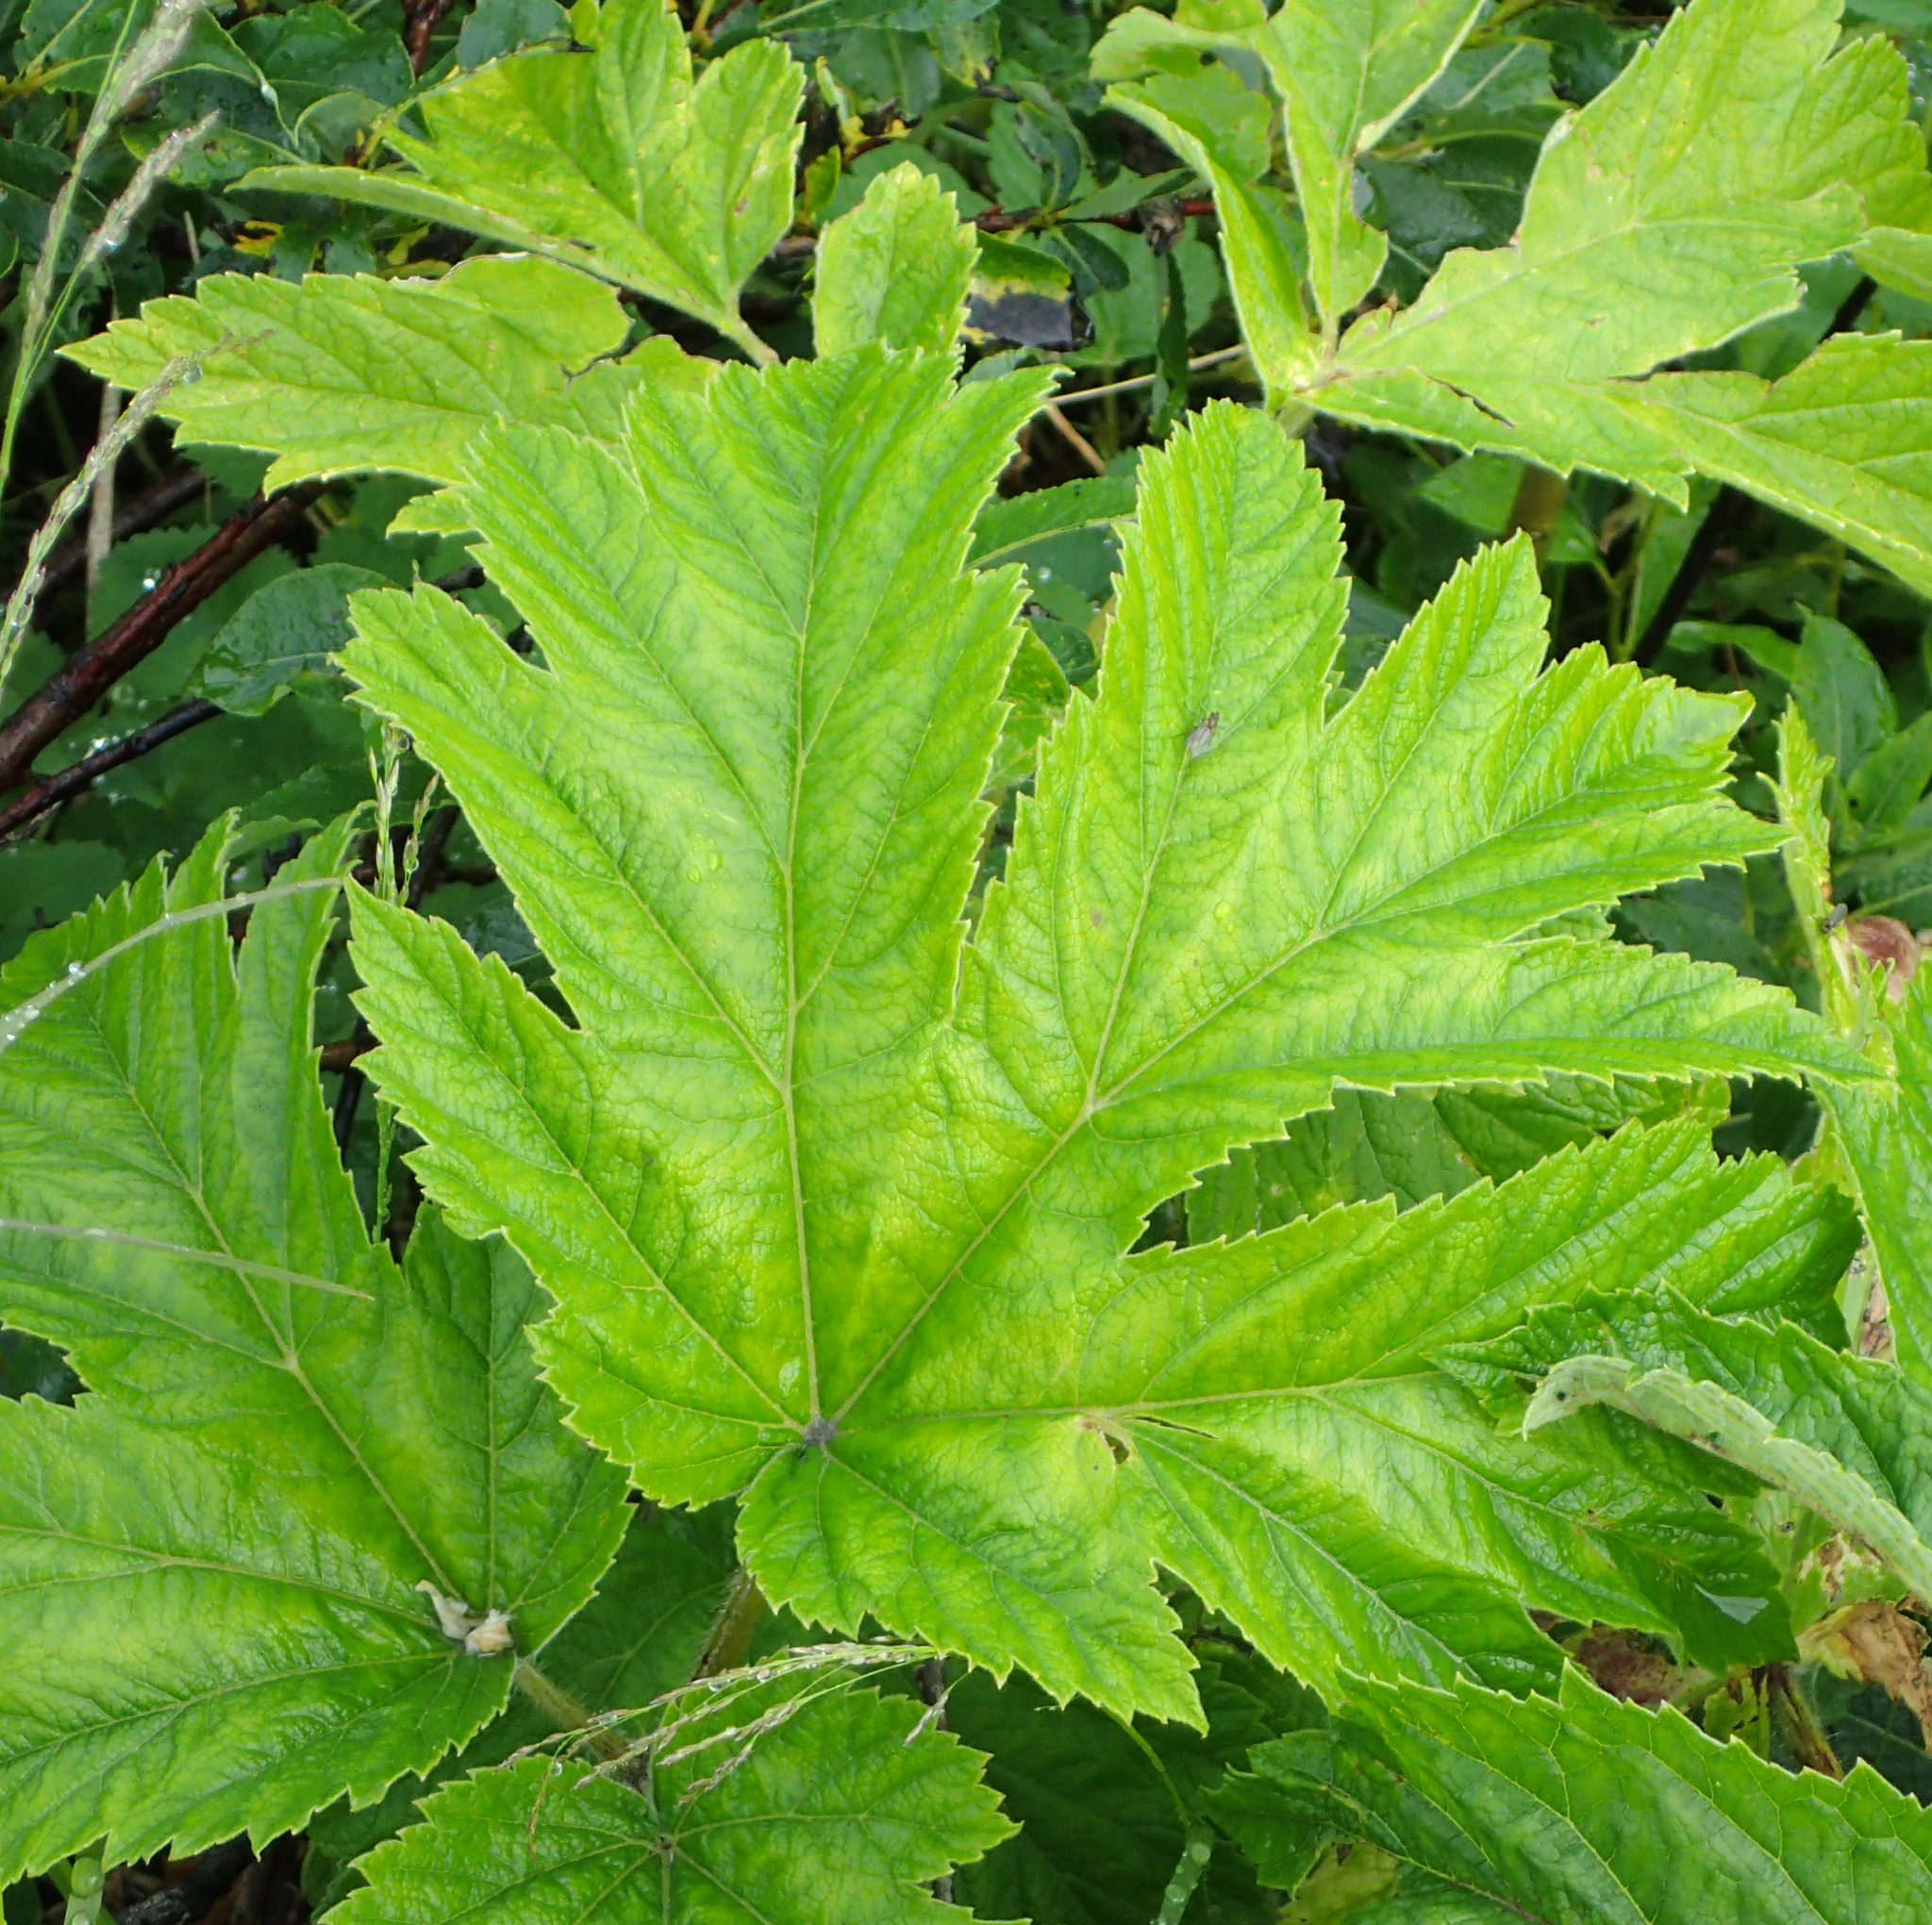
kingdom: Plantae
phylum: Tracheophyta
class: Magnoliopsida
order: Apiales
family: Apiaceae
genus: Heracleum
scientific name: Heracleum maximum
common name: American cow parsnip
